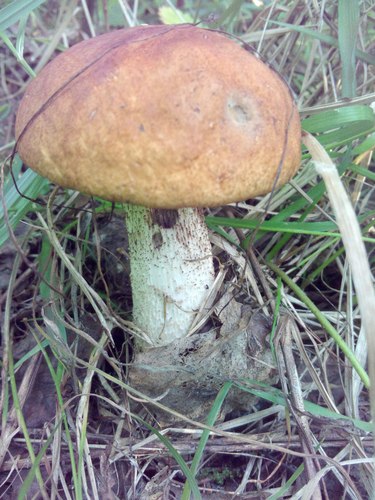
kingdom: Fungi
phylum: Basidiomycota
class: Agaricomycetes
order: Boletales
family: Boletaceae
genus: Leccinum
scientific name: Leccinum
